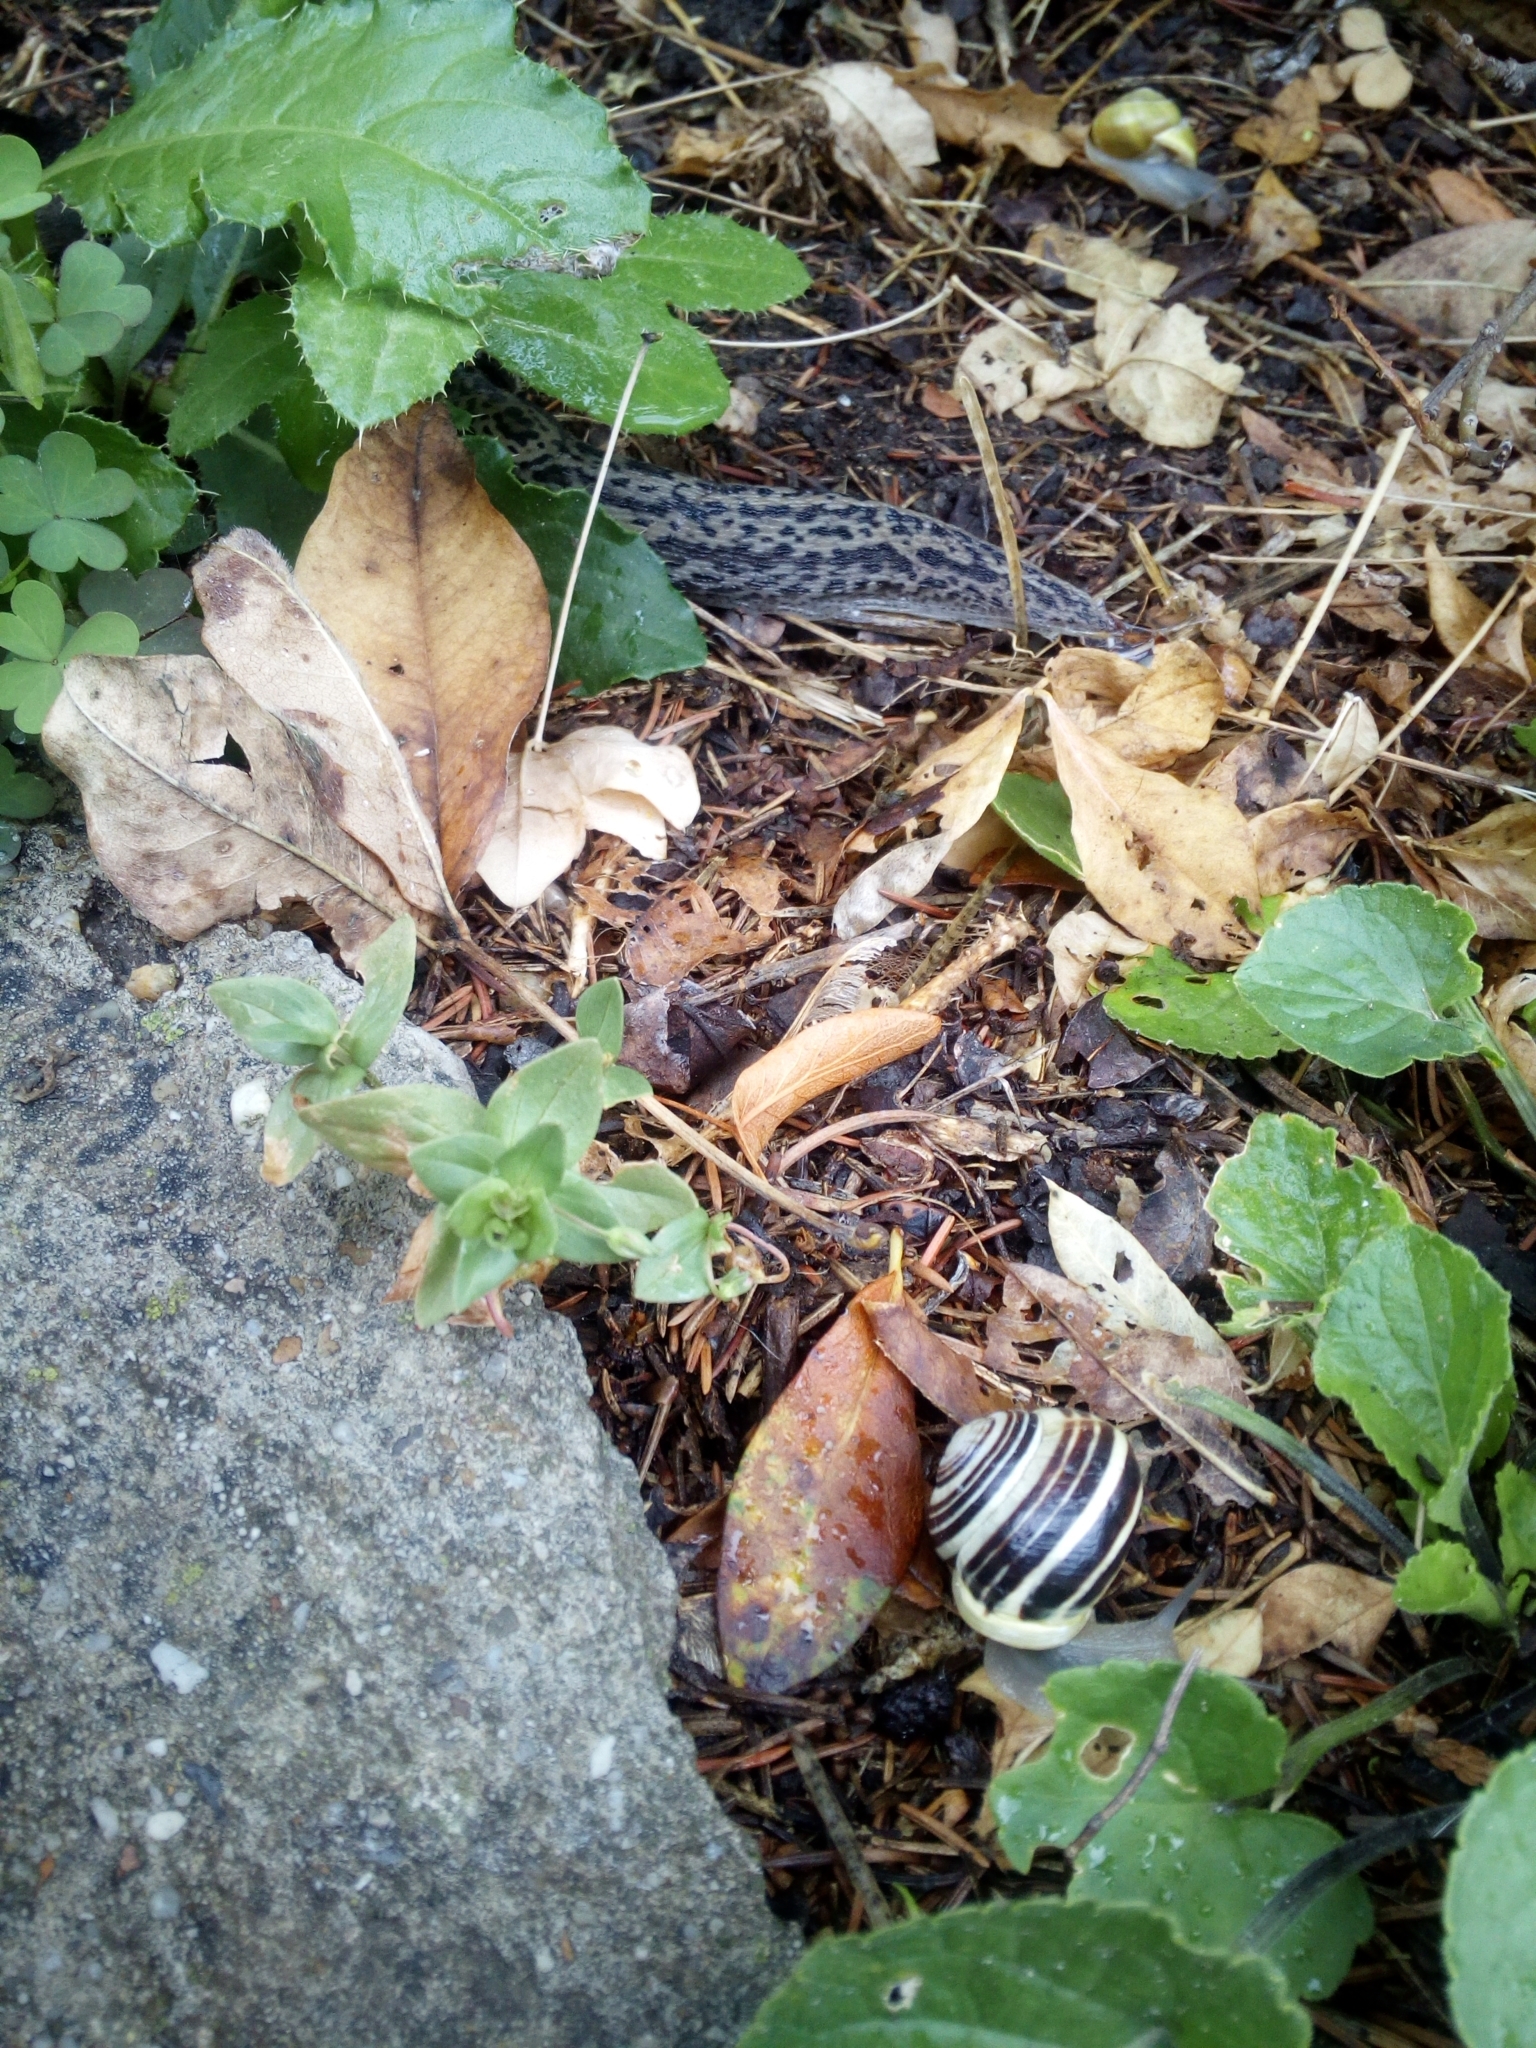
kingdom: Animalia
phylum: Mollusca
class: Gastropoda
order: Stylommatophora
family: Helicidae
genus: Cepaea
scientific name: Cepaea hortensis
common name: White-lip gardensnail
